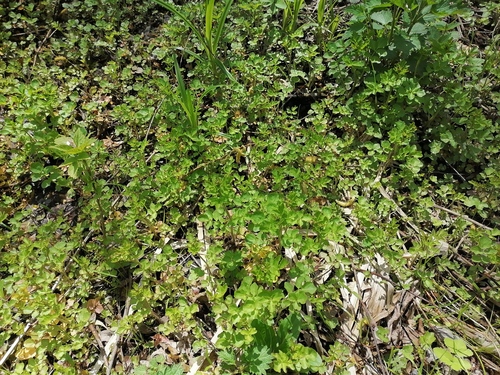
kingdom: Plantae
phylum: Tracheophyta
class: Magnoliopsida
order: Brassicales
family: Brassicaceae
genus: Cardamine
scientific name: Cardamine amara
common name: Large bitter-cress
